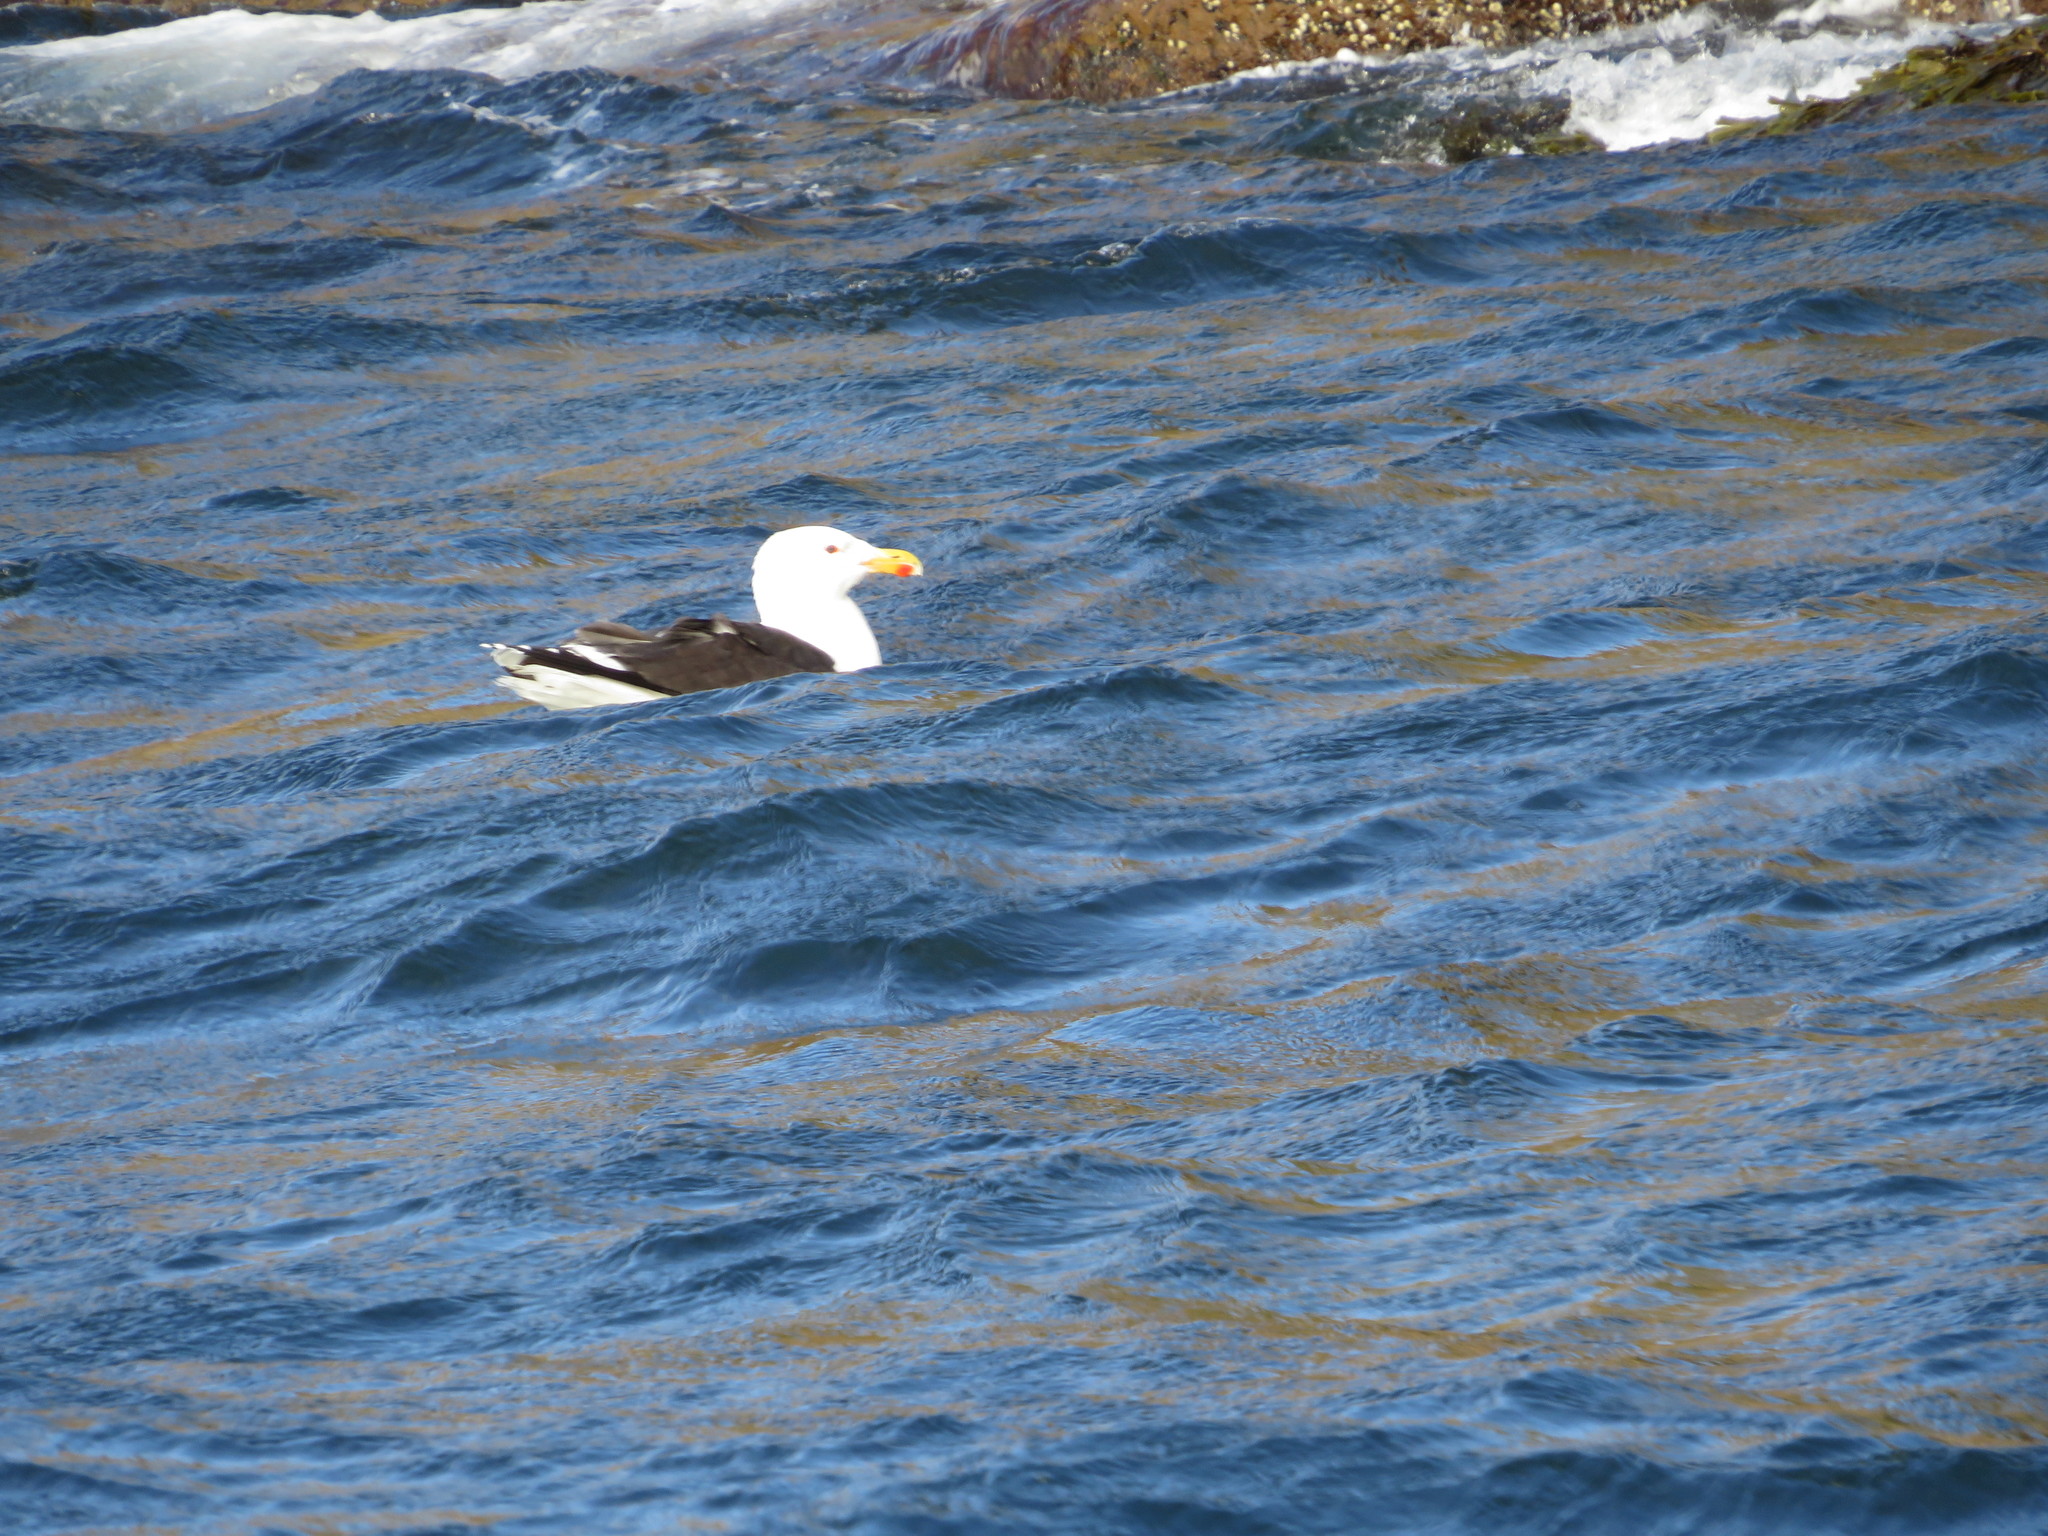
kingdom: Animalia
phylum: Chordata
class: Aves
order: Charadriiformes
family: Laridae
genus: Larus
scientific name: Larus marinus
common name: Great black-backed gull
